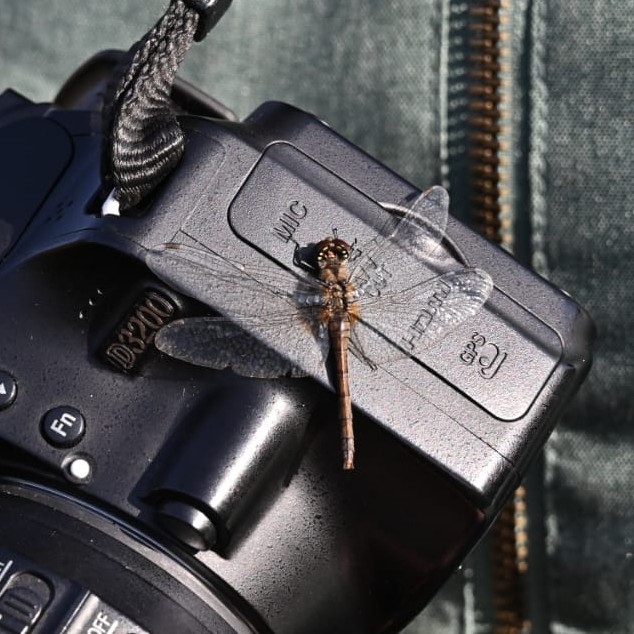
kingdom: Animalia
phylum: Arthropoda
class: Insecta
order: Odonata
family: Libellulidae
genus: Sympetrum
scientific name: Sympetrum danae
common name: Black darter
